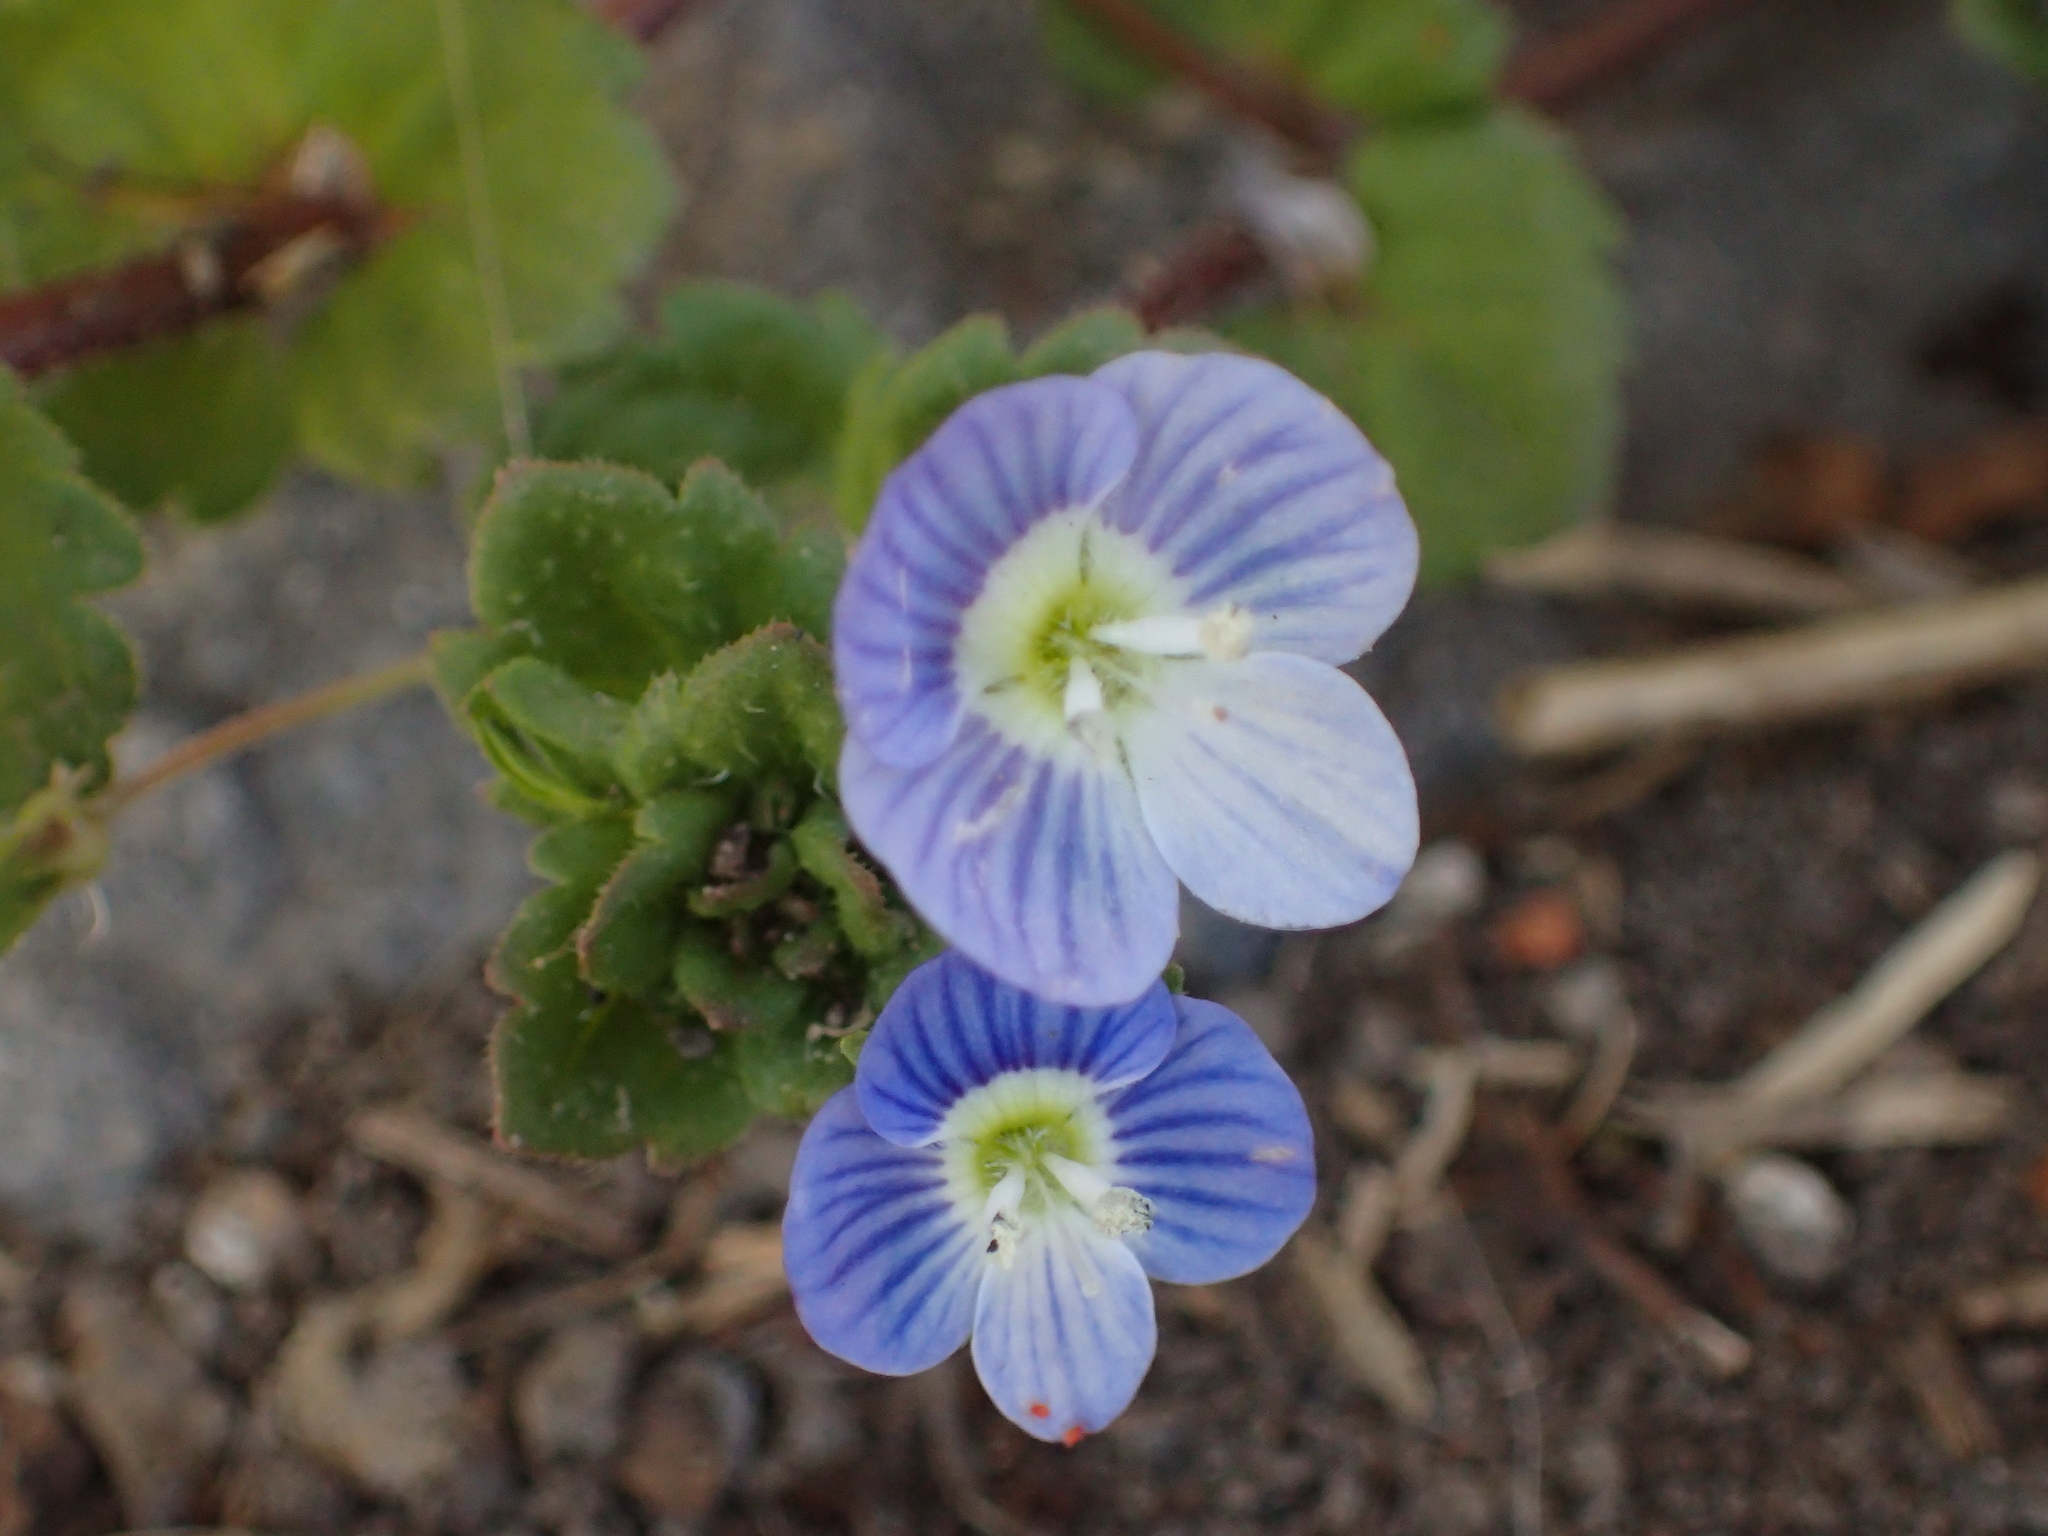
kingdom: Plantae
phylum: Tracheophyta
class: Magnoliopsida
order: Lamiales
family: Plantaginaceae
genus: Veronica
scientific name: Veronica persica
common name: Common field-speedwell
